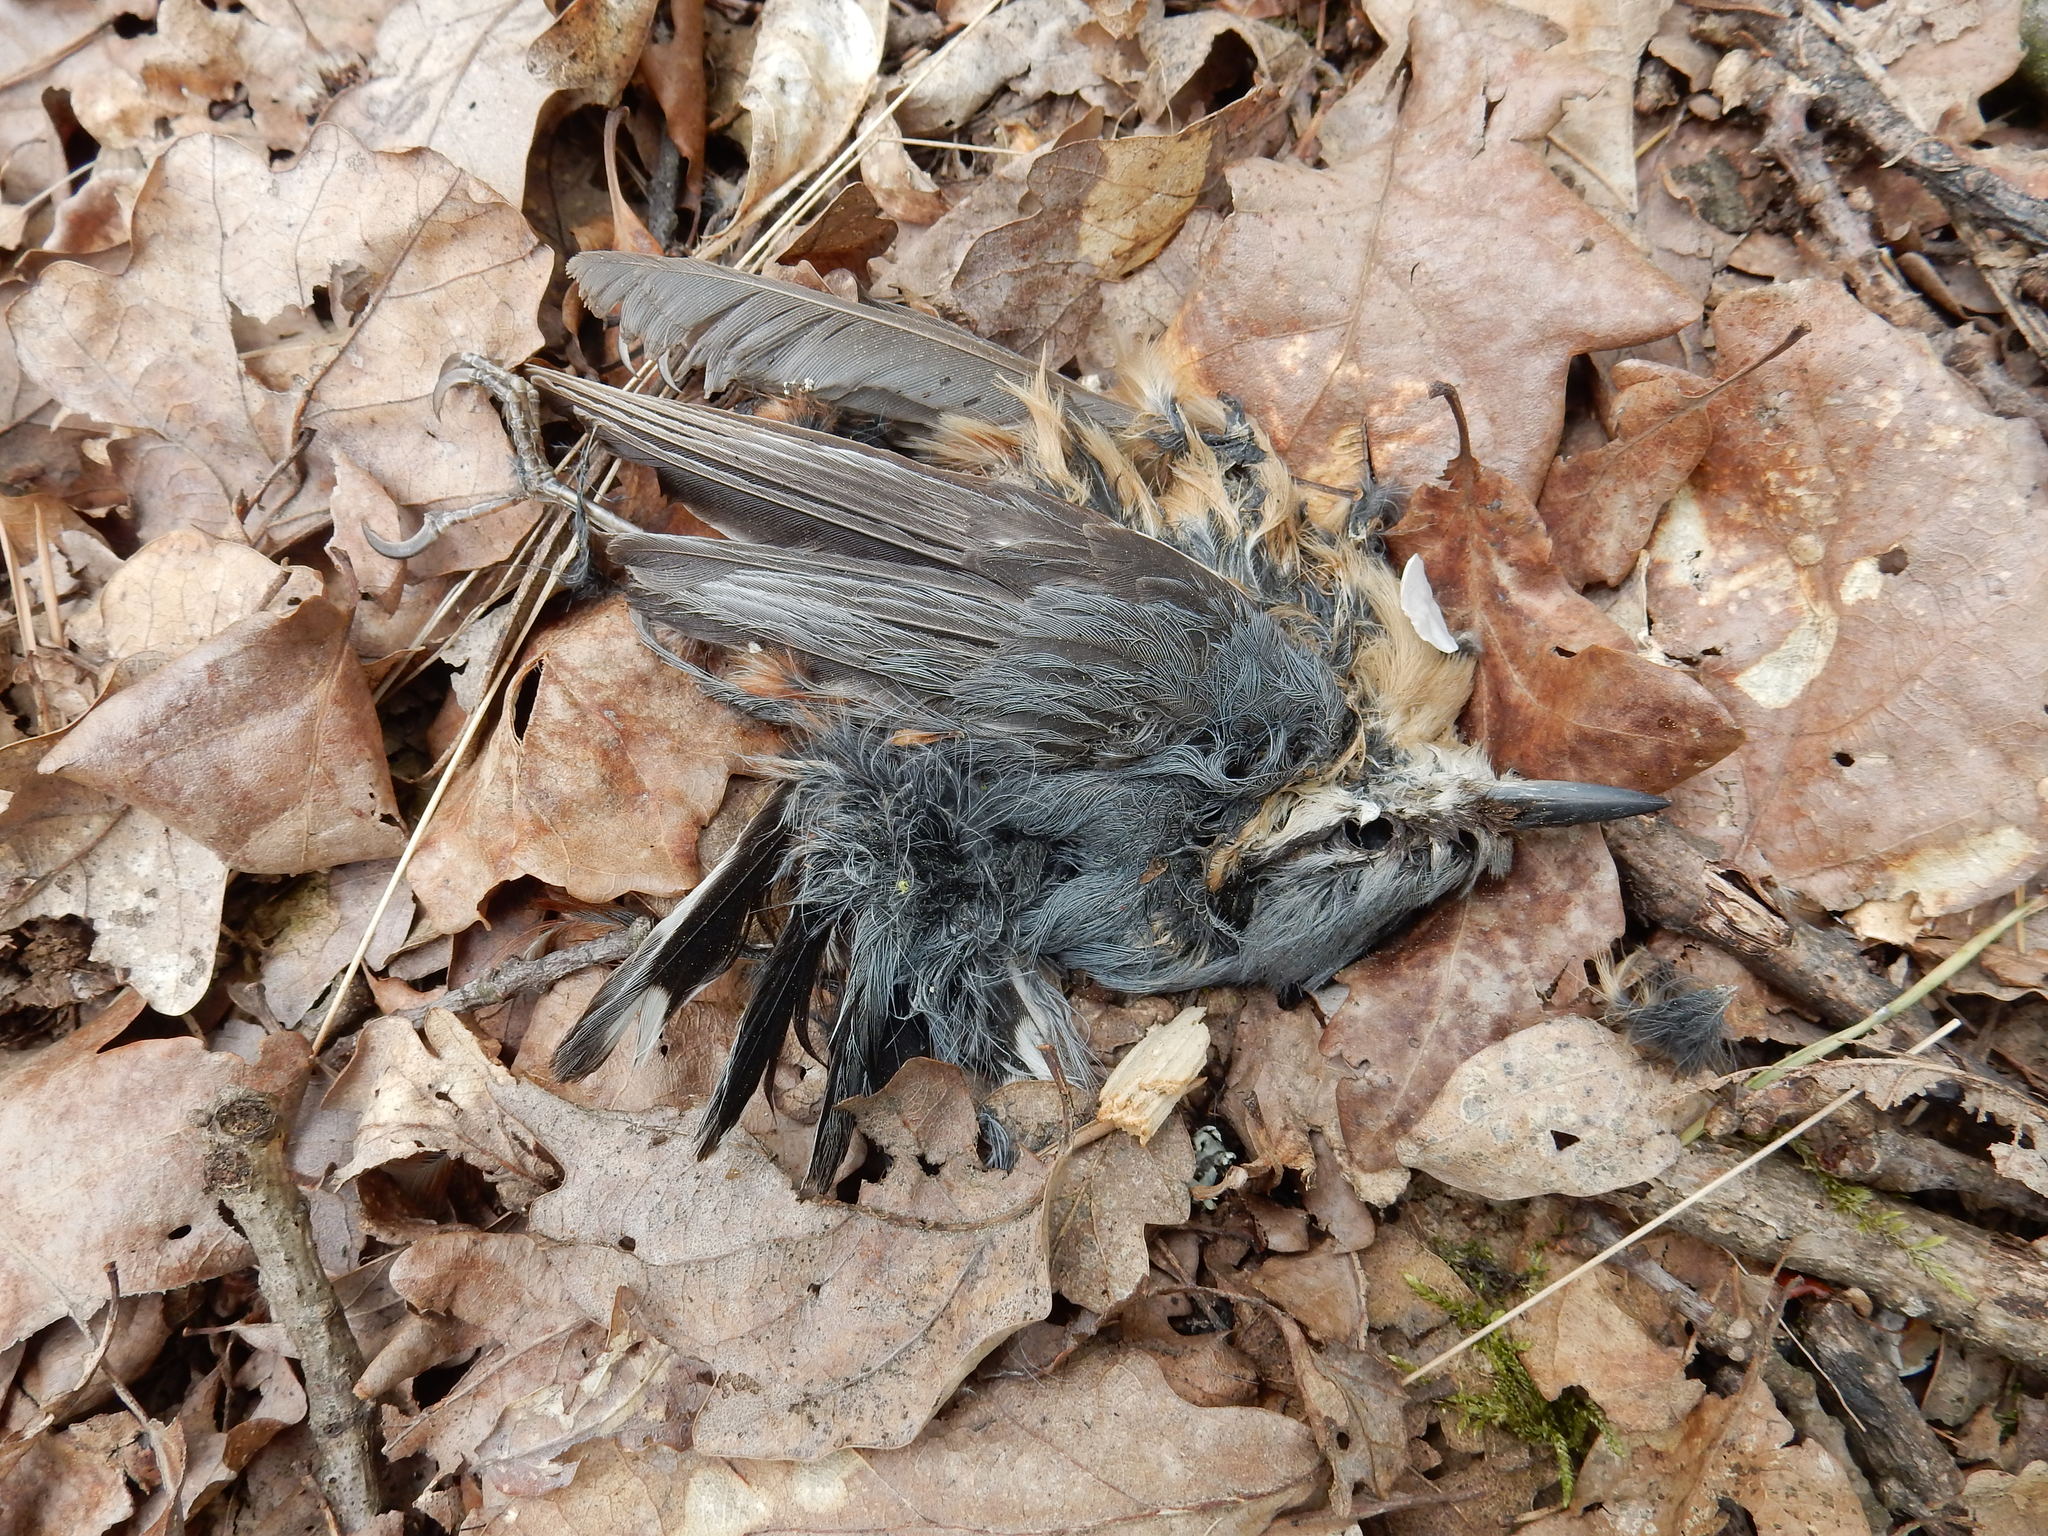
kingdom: Animalia
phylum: Chordata
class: Aves
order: Passeriformes
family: Sittidae
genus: Sitta
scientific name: Sitta europaea
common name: Eurasian nuthatch
